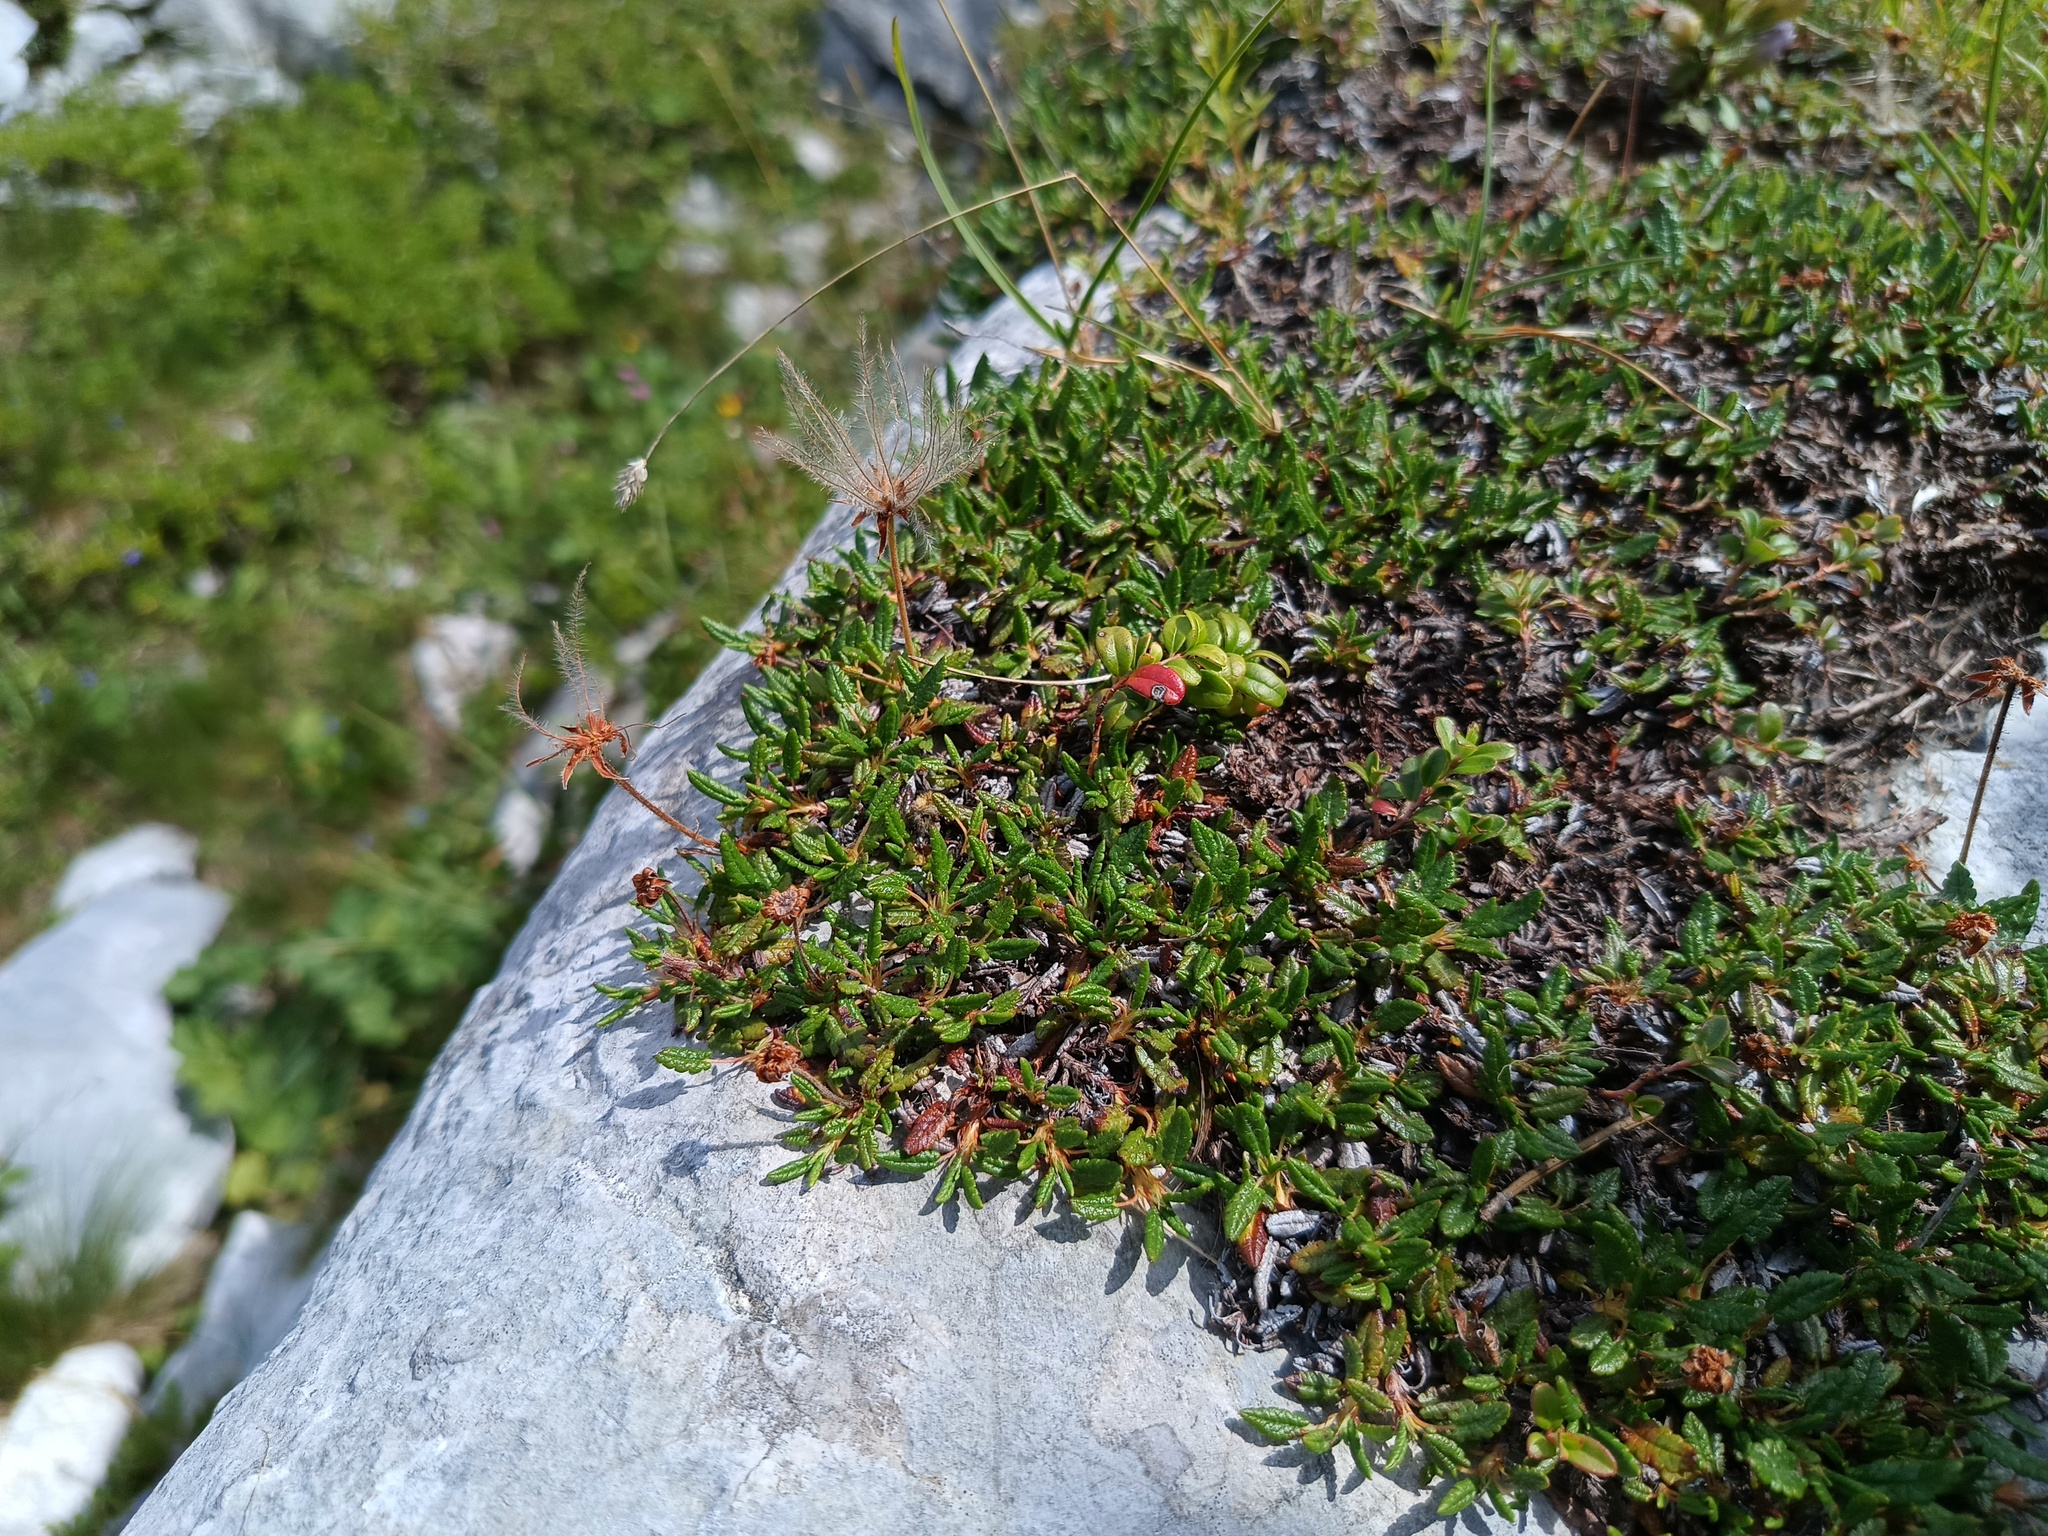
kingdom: Plantae
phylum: Tracheophyta
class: Magnoliopsida
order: Rosales
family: Rosaceae
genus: Dryas
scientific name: Dryas octopetala
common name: Eight-petal mountain-avens
